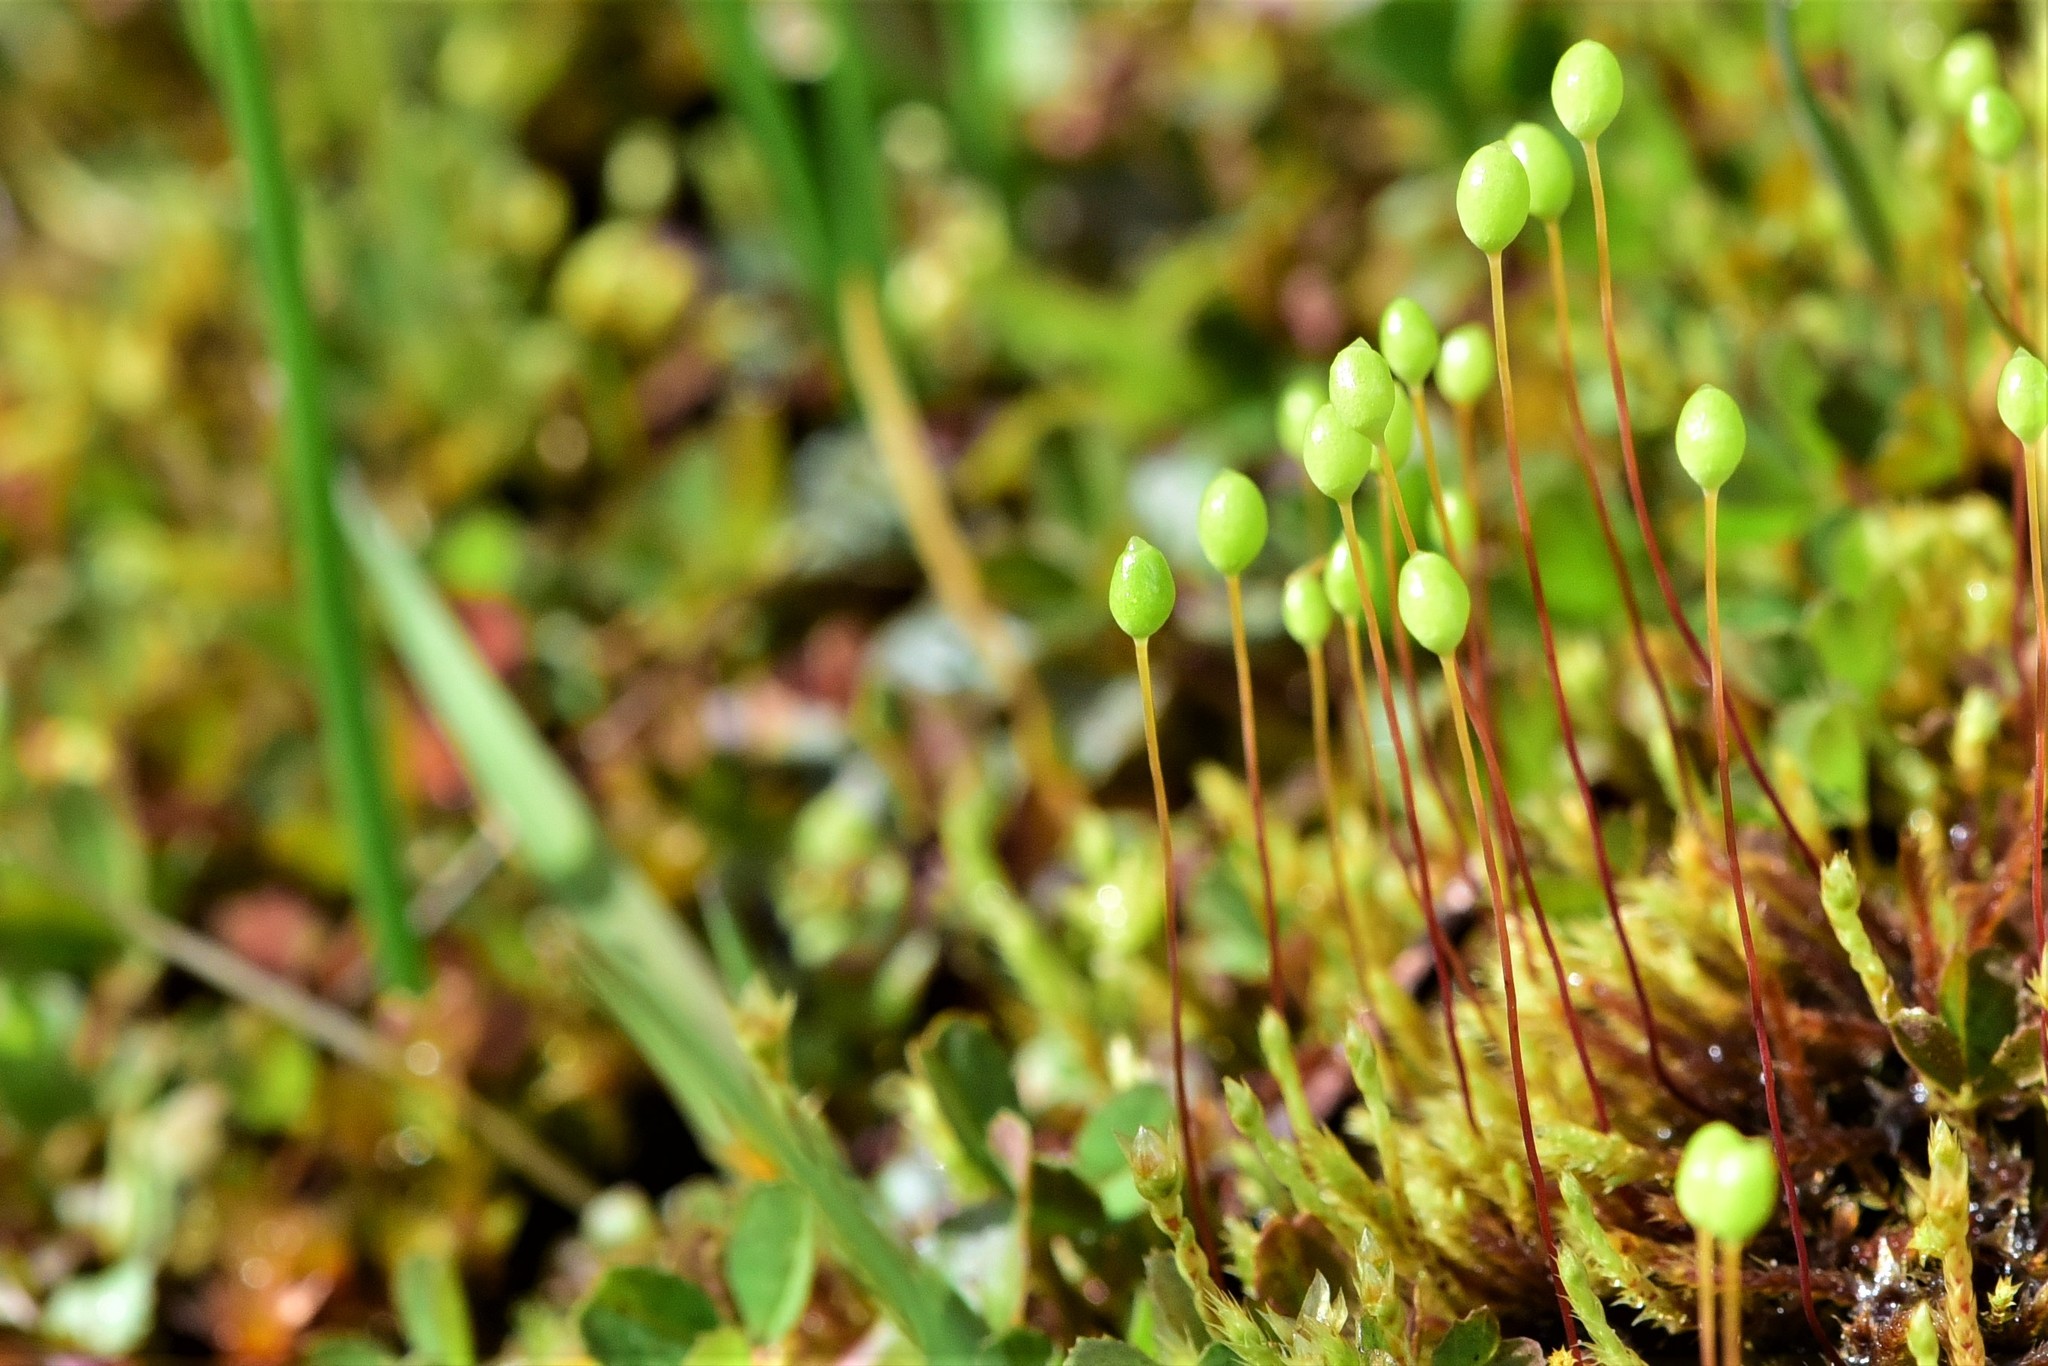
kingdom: Plantae
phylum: Bryophyta
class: Bryopsida
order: Bartramiales
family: Bartramiaceae
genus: Philonotis
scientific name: Philonotis fontana
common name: Fountain apple-moss
